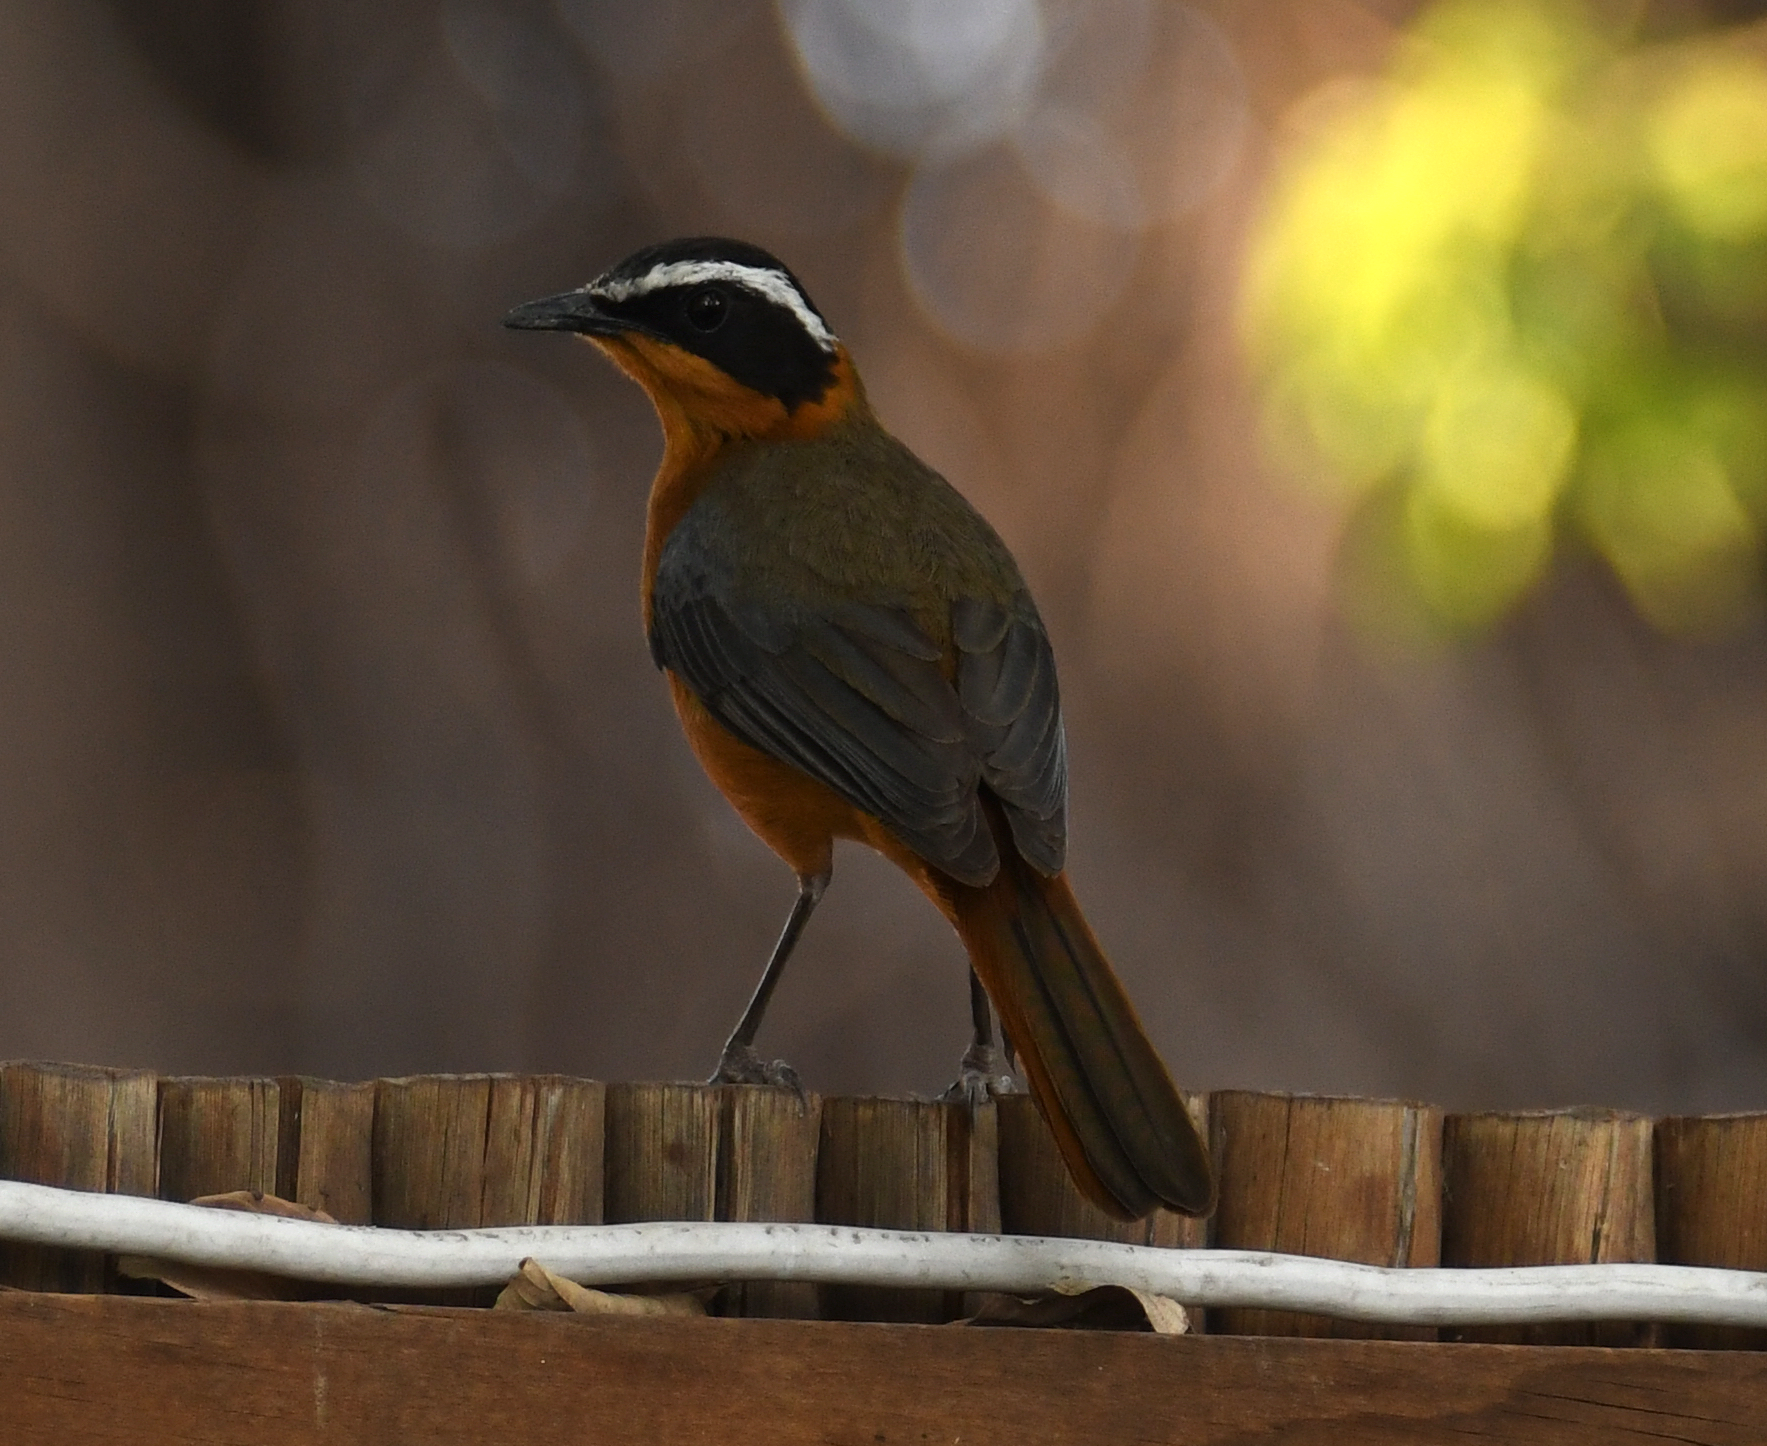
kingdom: Animalia
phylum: Chordata
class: Aves
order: Passeriformes
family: Muscicapidae
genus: Cossypha
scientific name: Cossypha heuglini
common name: White-browed robin-chat
